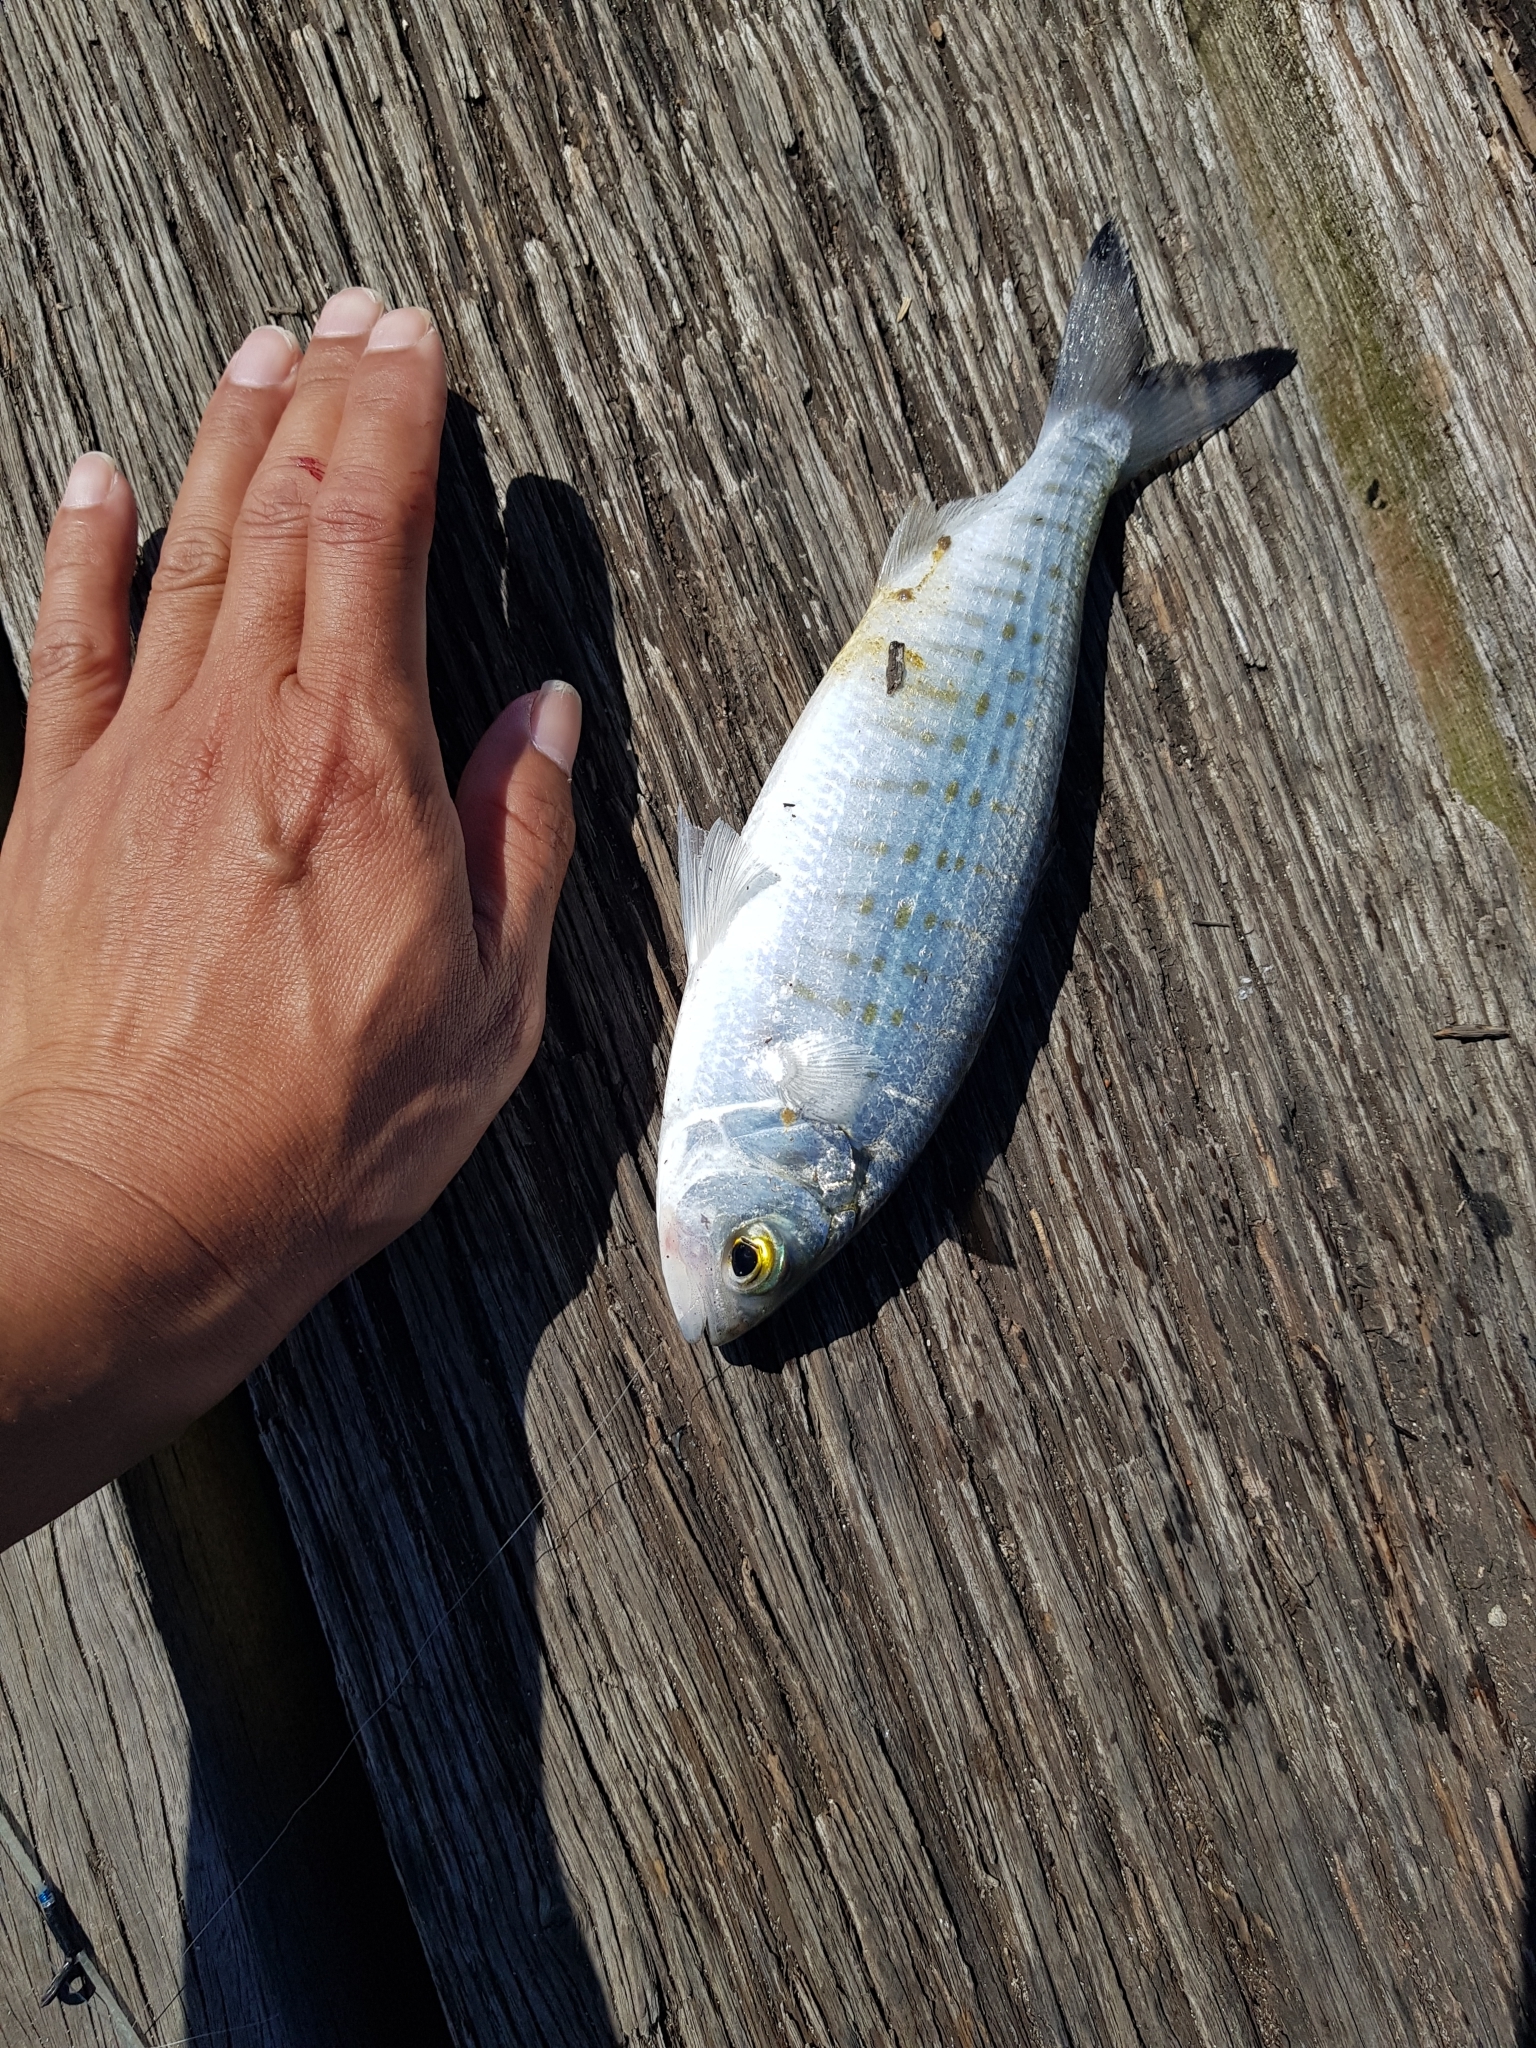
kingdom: Animalia
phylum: Chordata
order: Perciformes
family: Arripidae
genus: Arripis
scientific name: Arripis georgianus
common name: Australian herring
